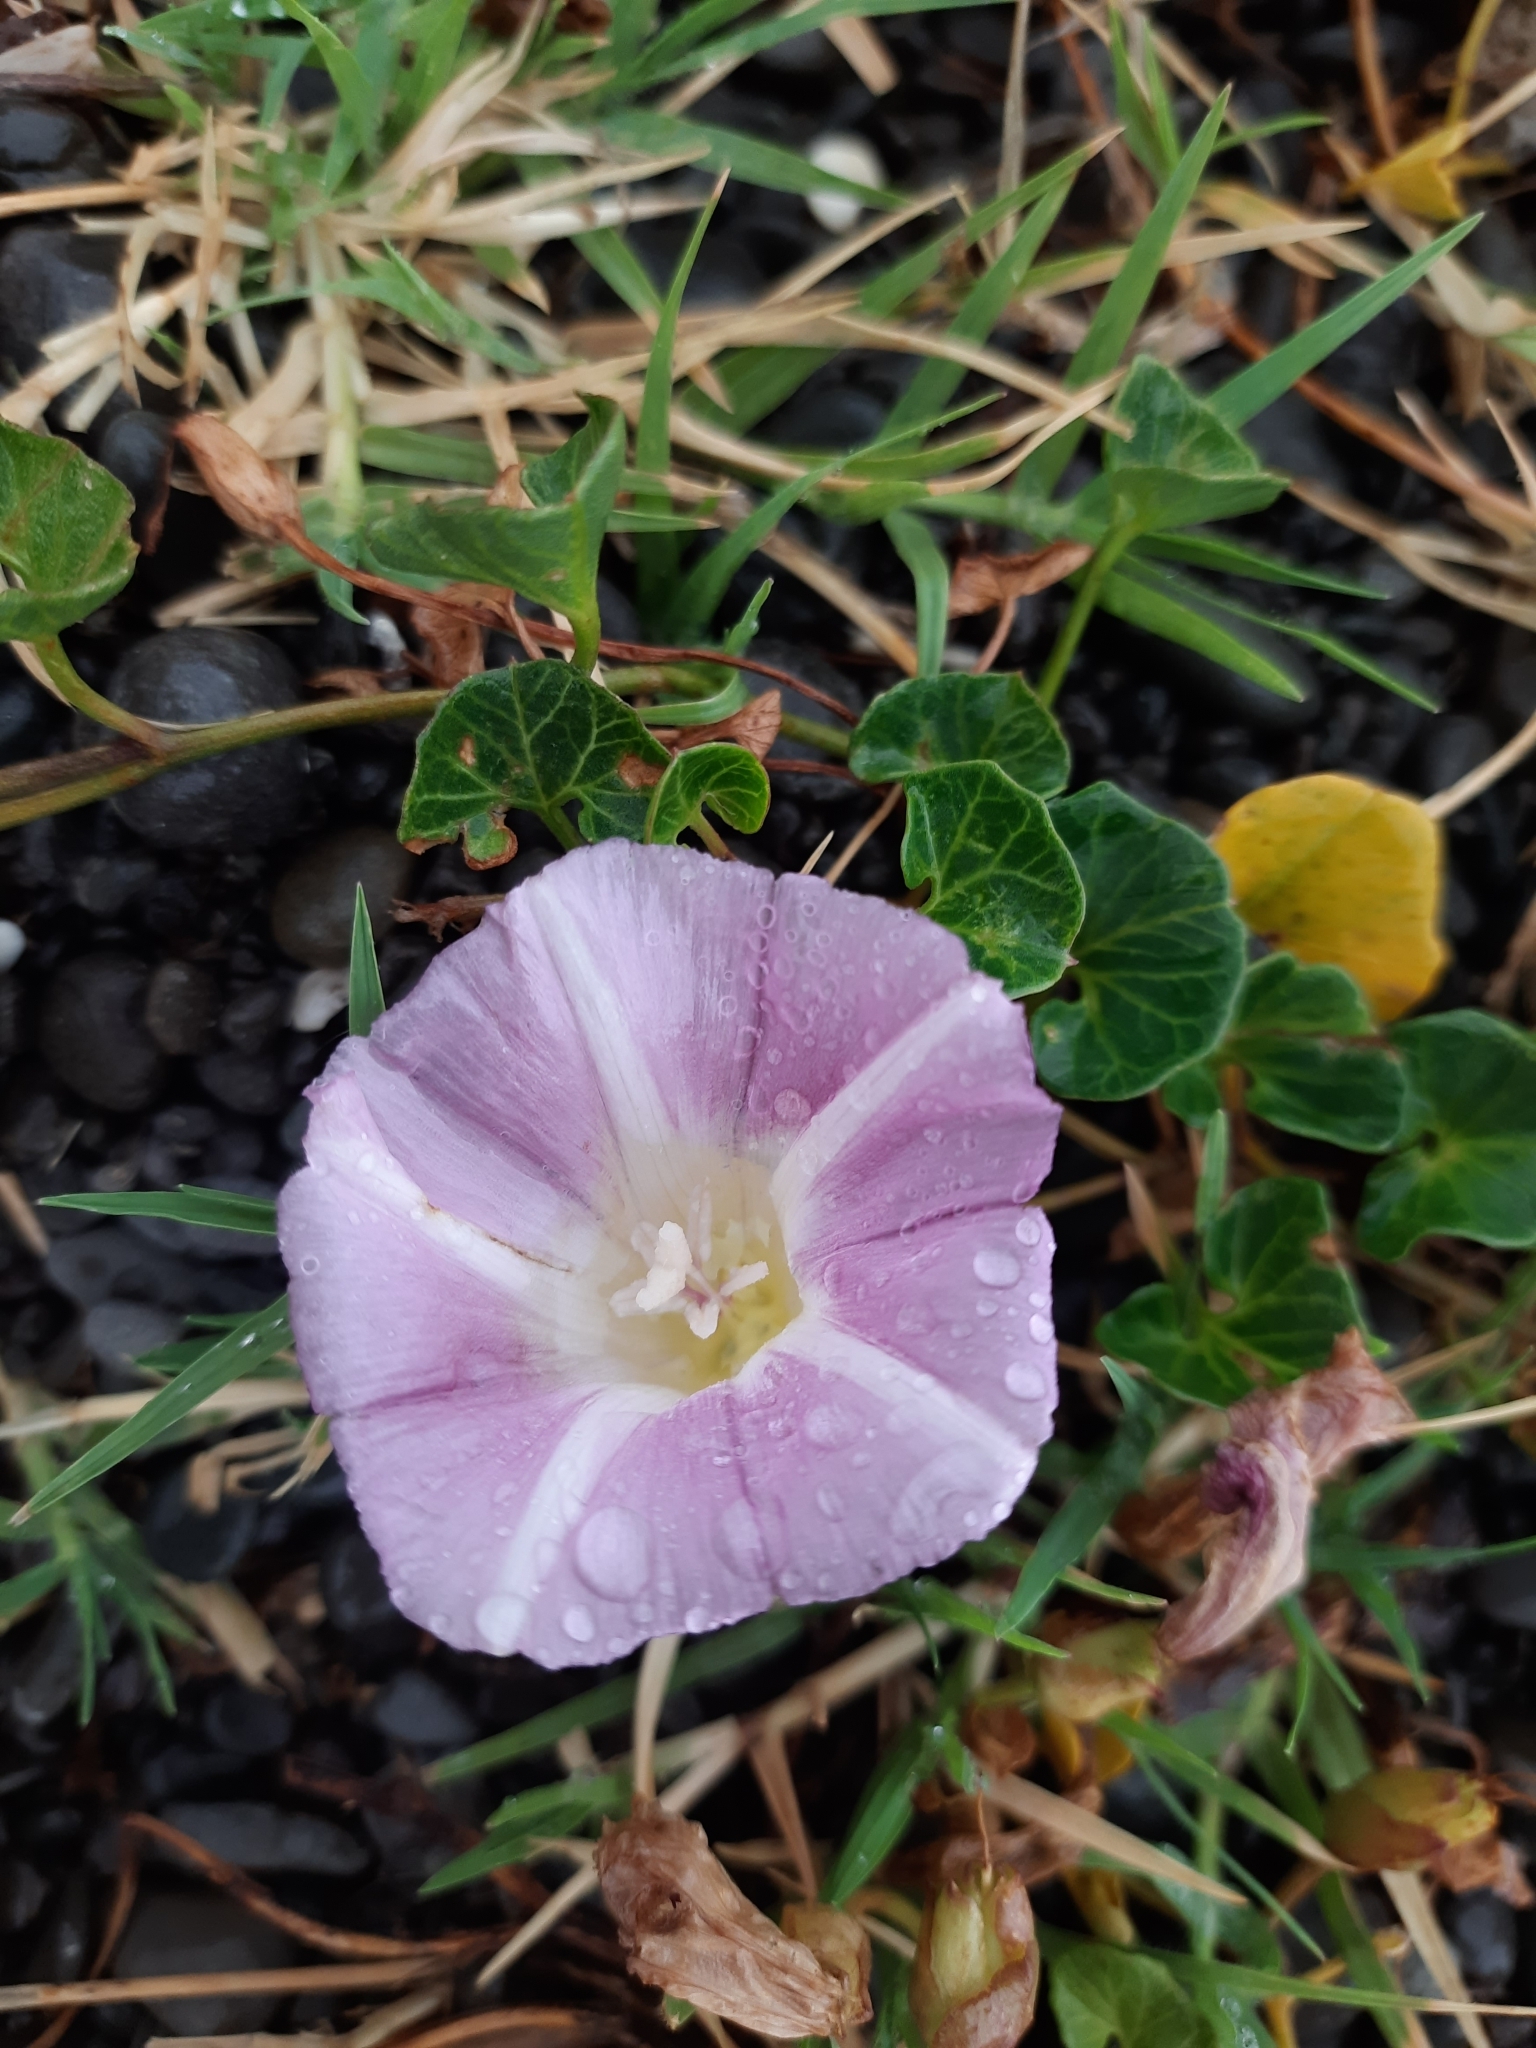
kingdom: Plantae
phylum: Tracheophyta
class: Magnoliopsida
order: Solanales
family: Convolvulaceae
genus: Calystegia
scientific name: Calystegia soldanella
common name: Sea bindweed
